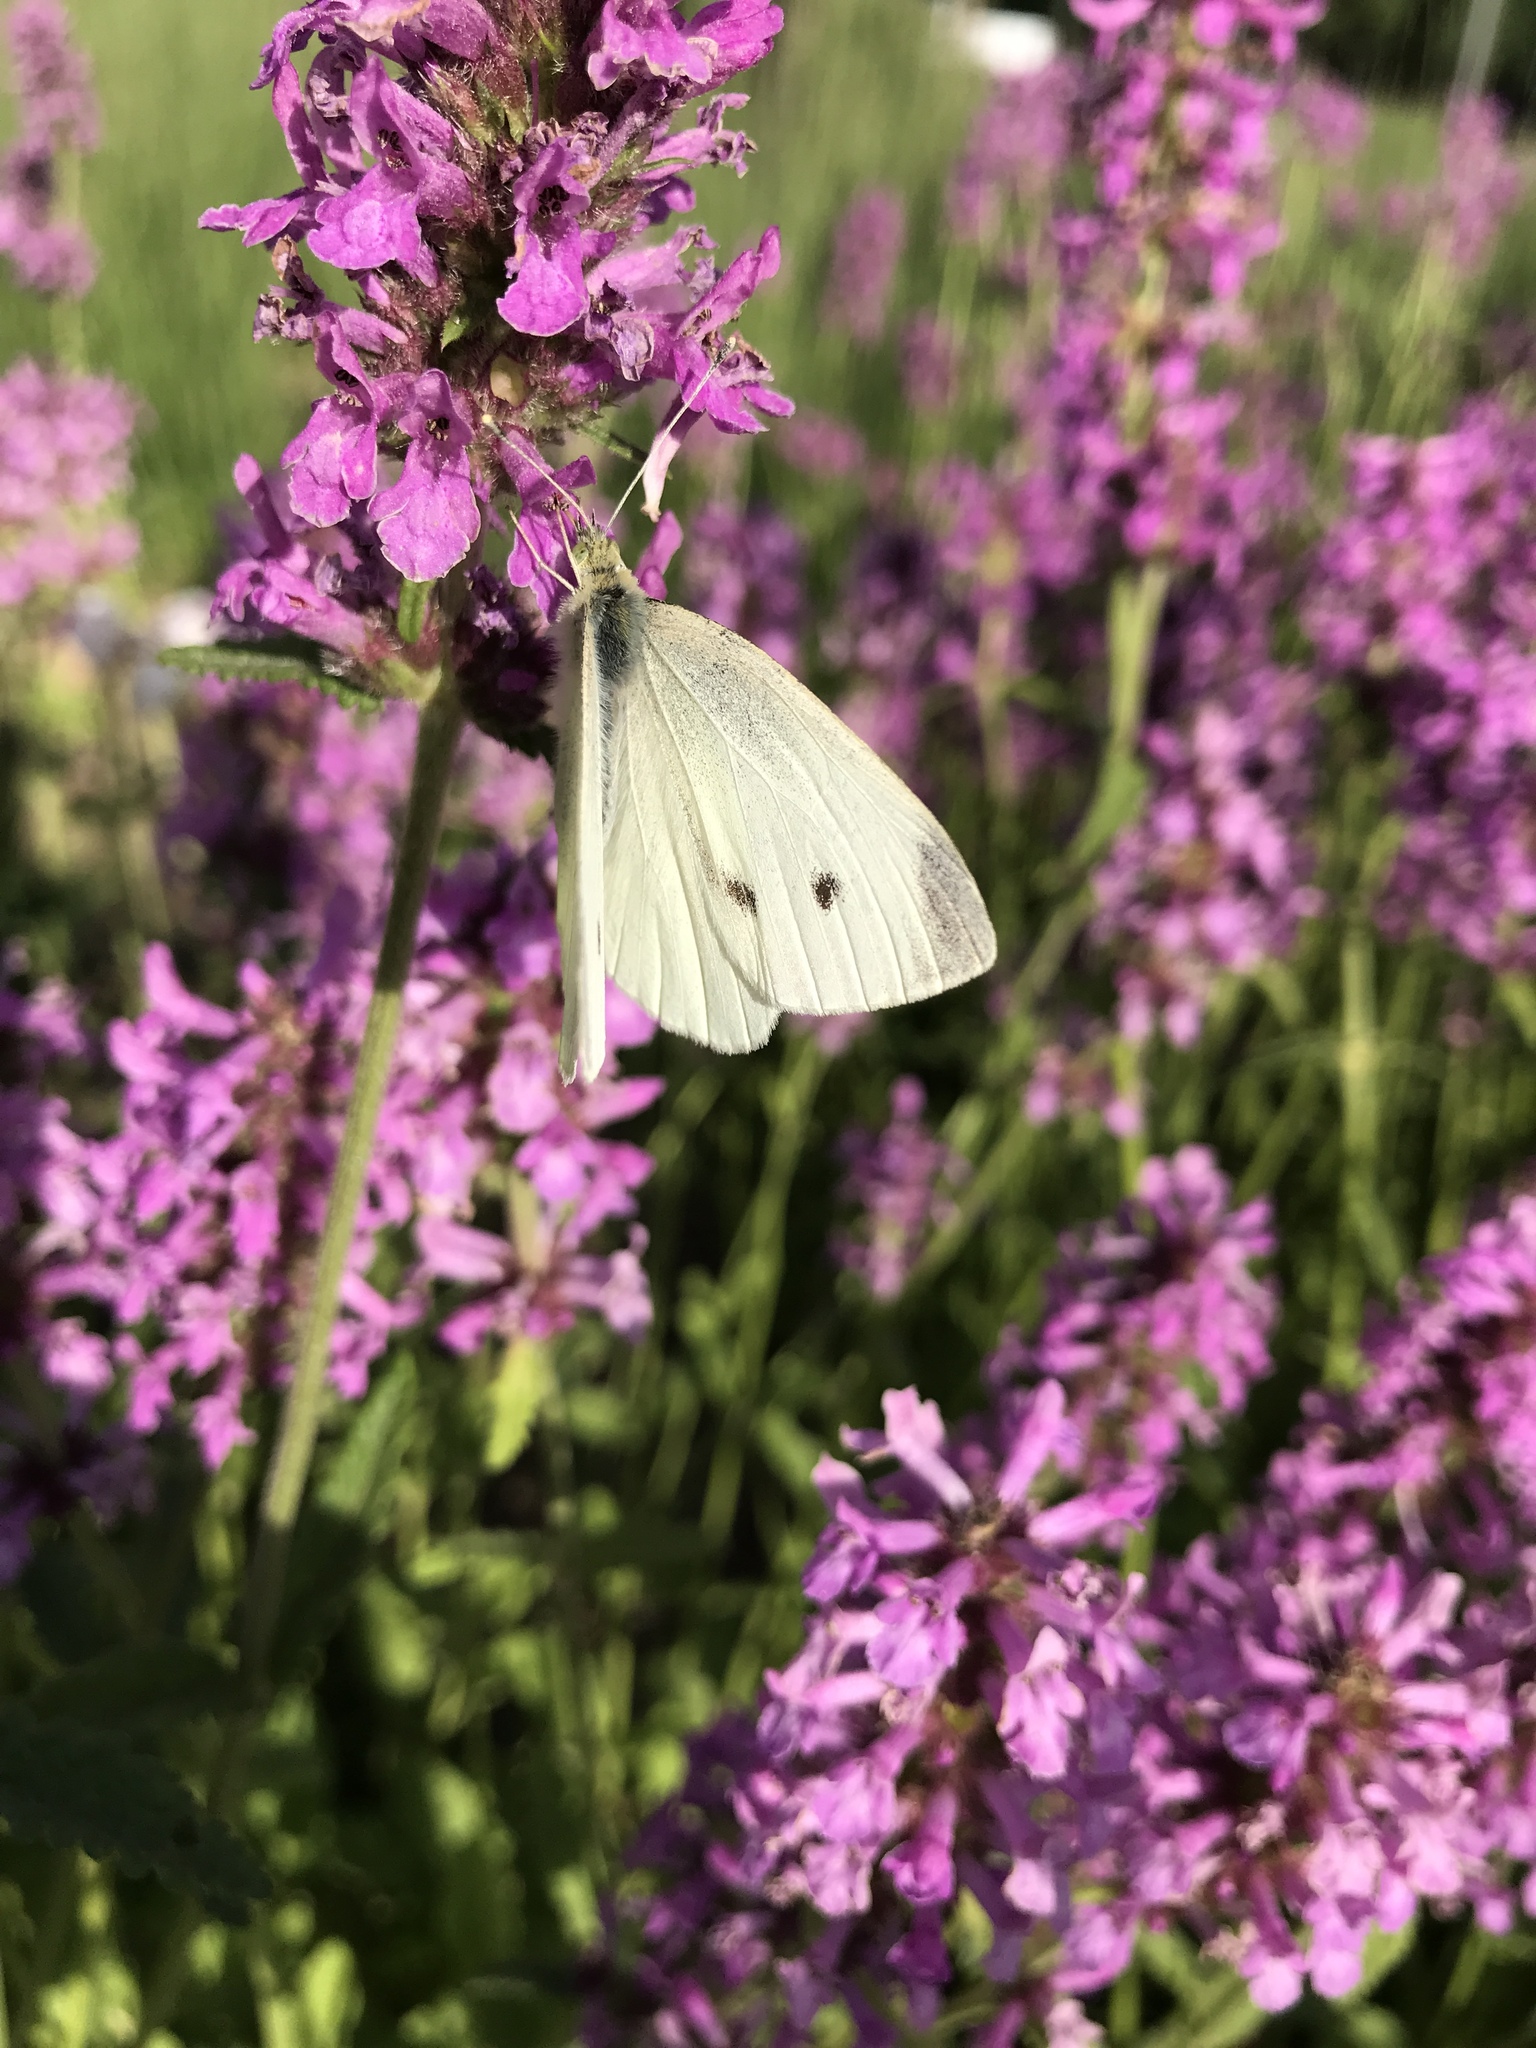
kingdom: Animalia
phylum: Arthropoda
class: Insecta
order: Lepidoptera
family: Pieridae
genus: Pieris
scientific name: Pieris rapae
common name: Small white
